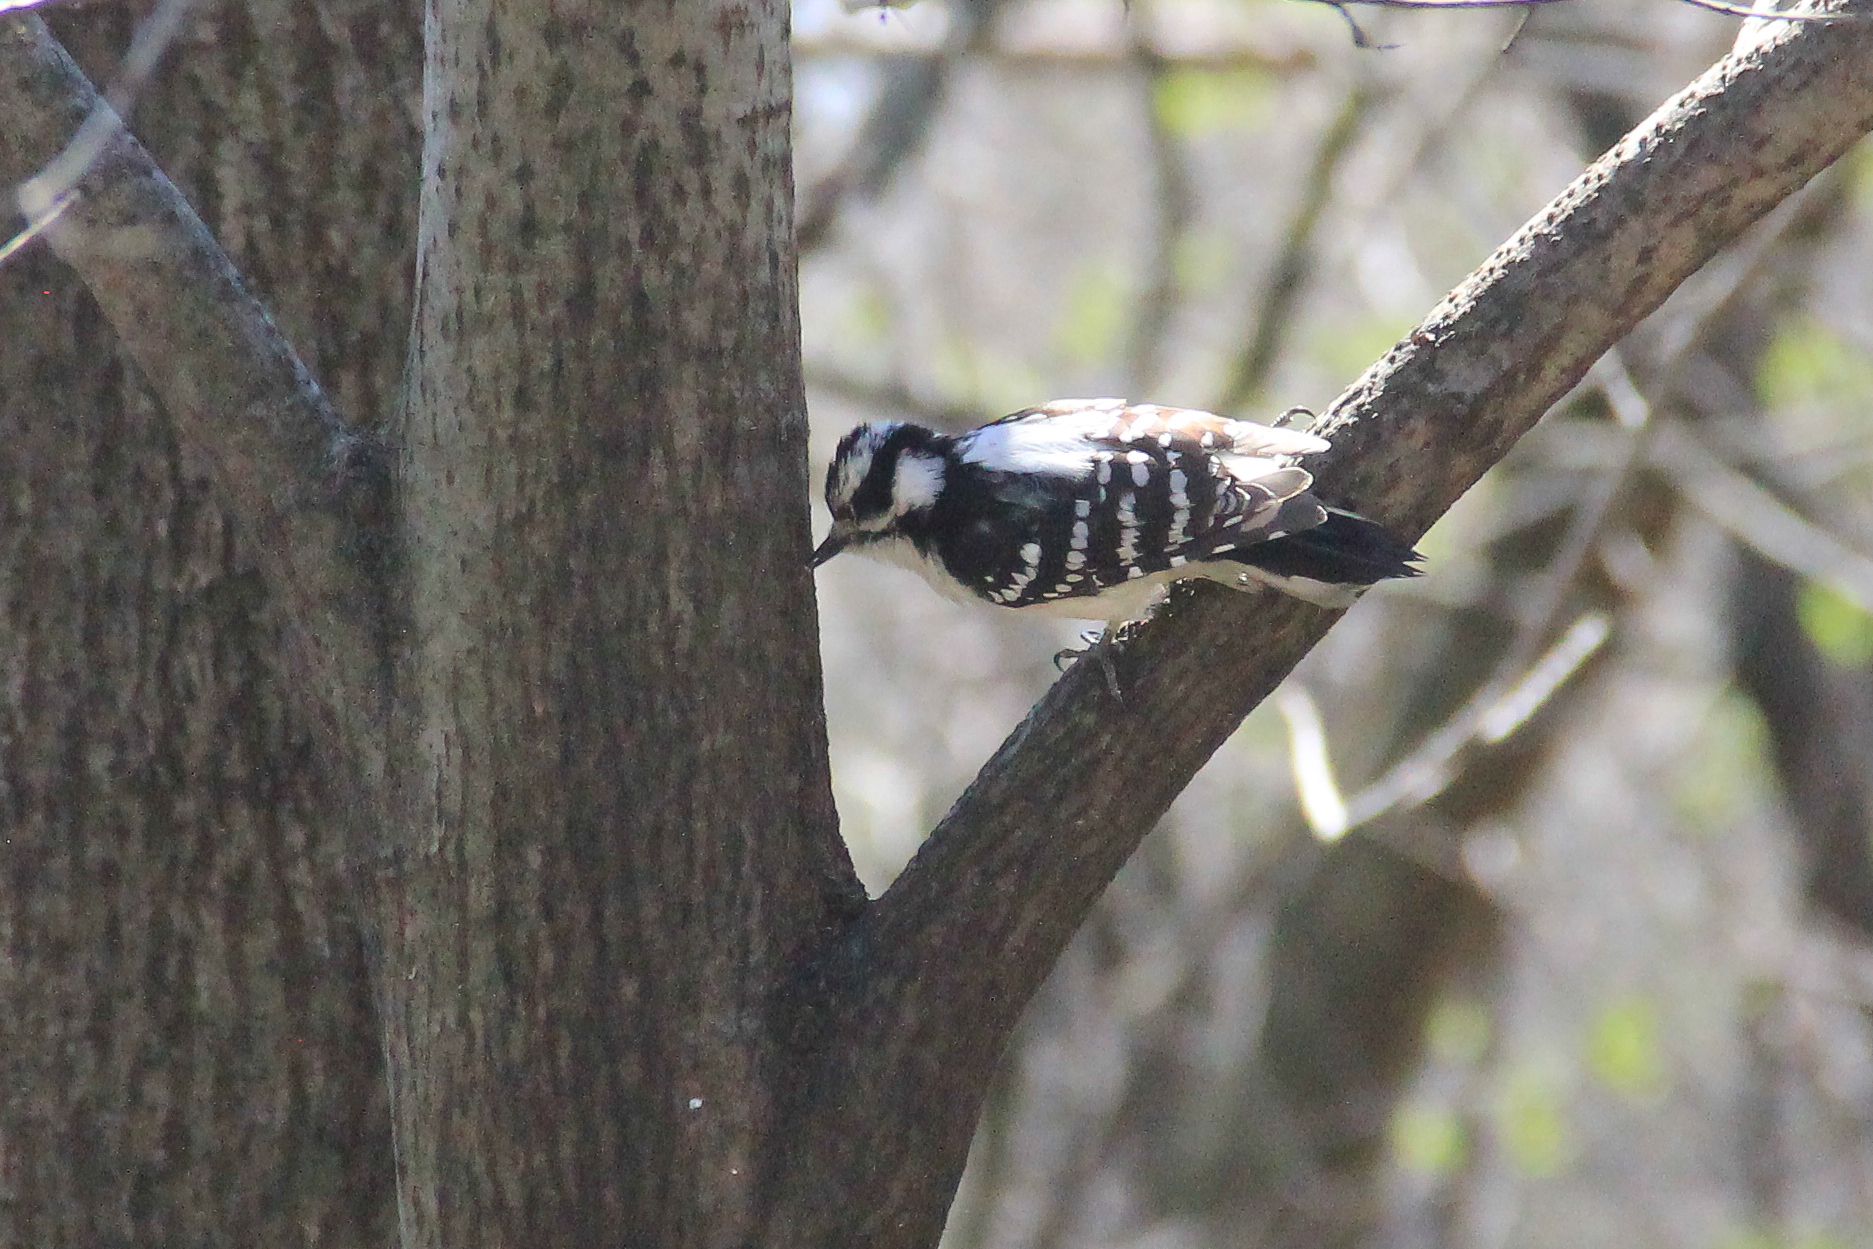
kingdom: Animalia
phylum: Chordata
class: Aves
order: Piciformes
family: Picidae
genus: Dryobates
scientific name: Dryobates pubescens
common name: Downy woodpecker
